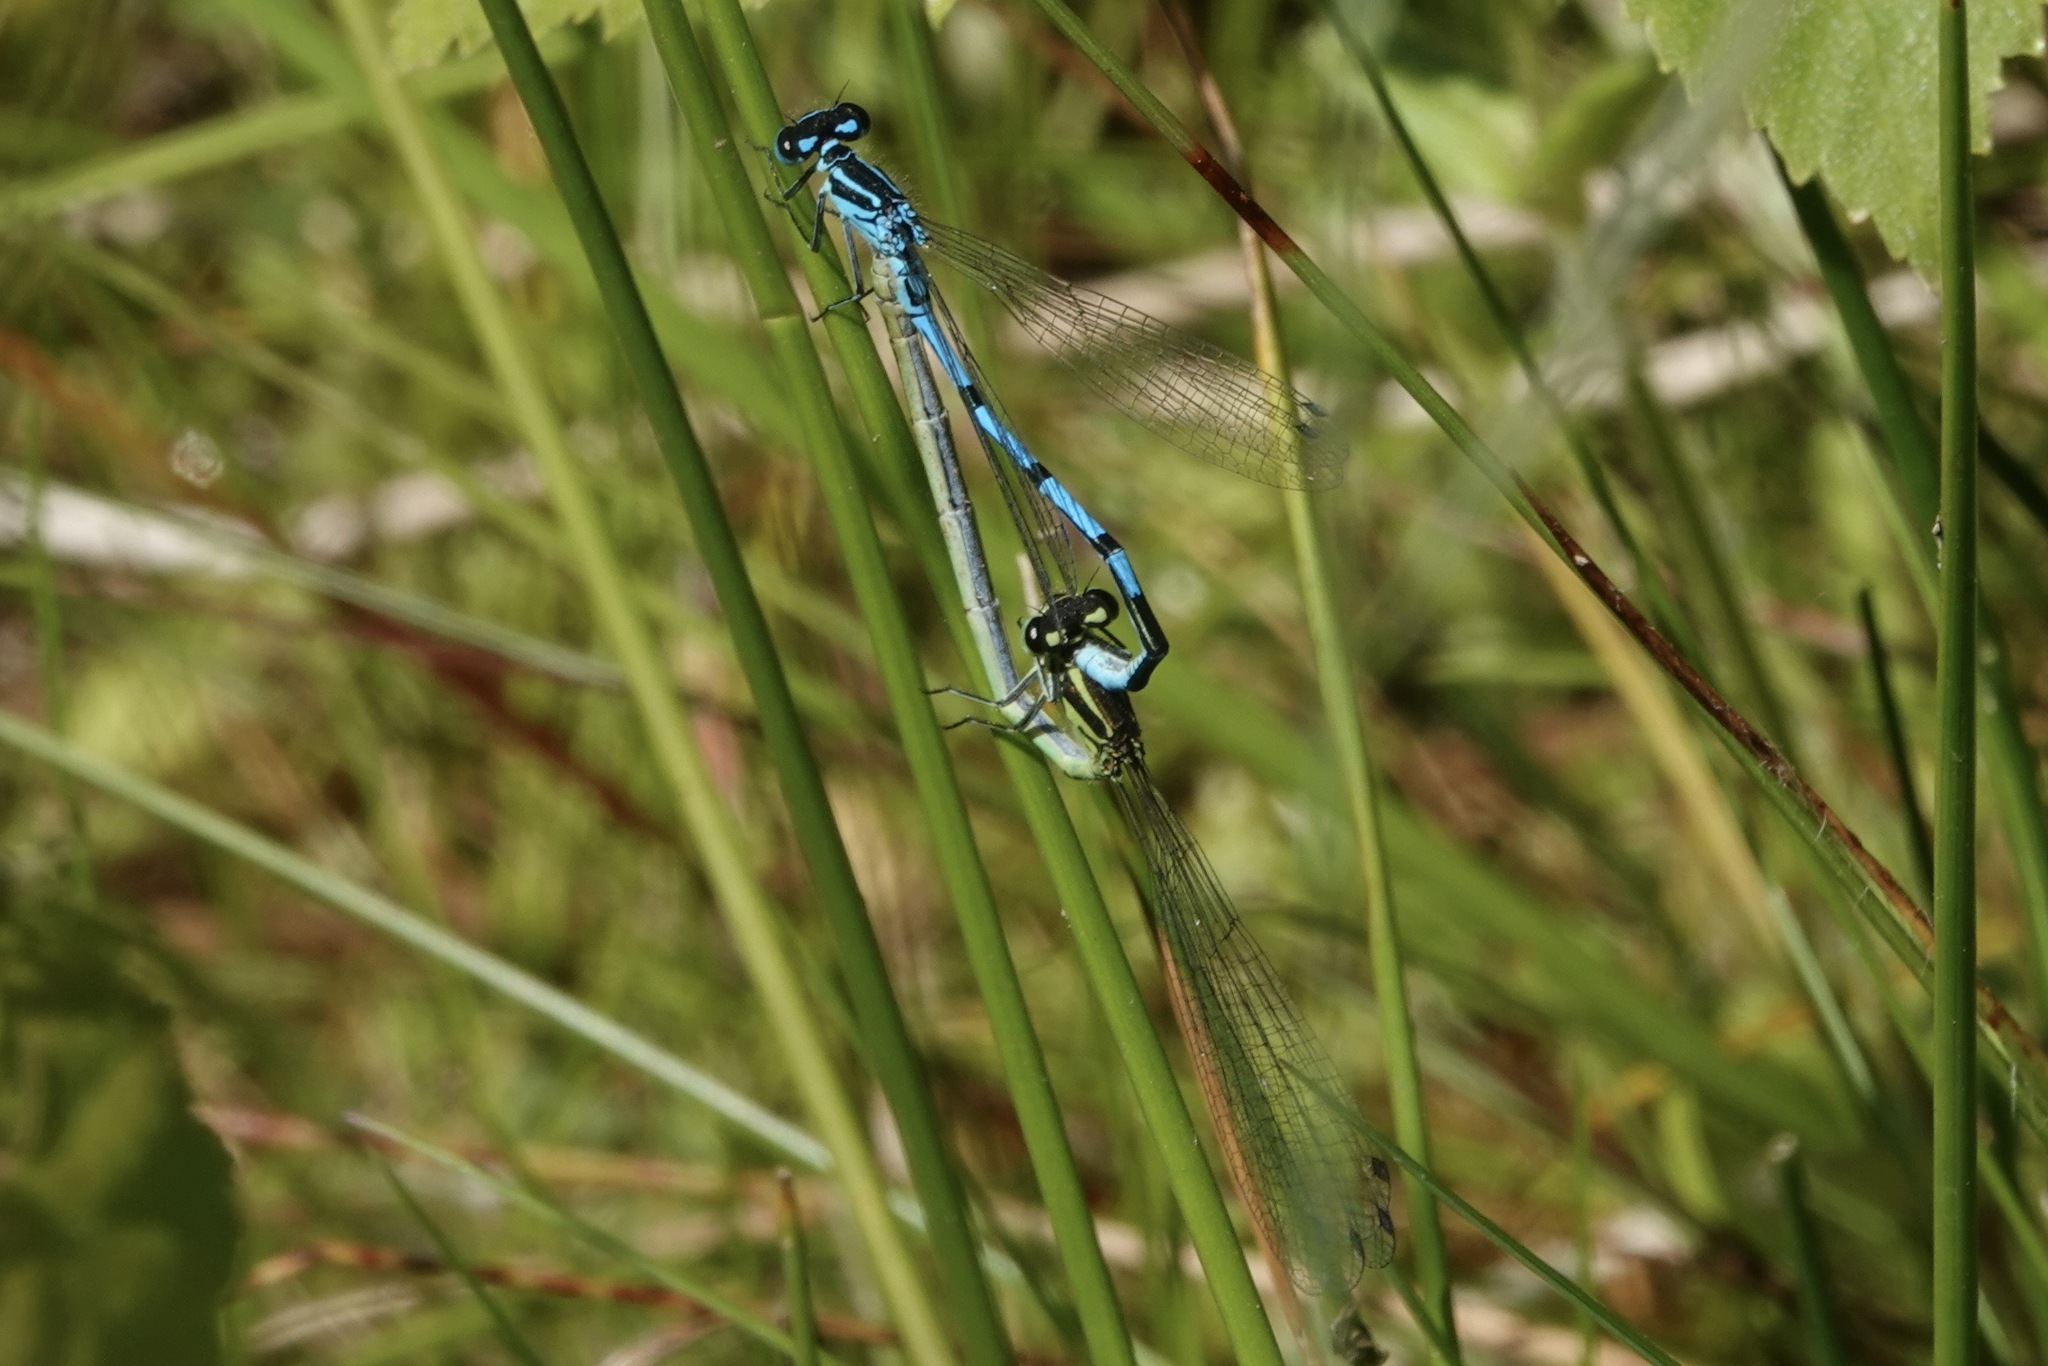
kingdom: Animalia
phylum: Arthropoda
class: Insecta
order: Odonata
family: Coenagrionidae
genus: Coenagrion
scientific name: Coenagrion puella
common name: Azure damselfly
